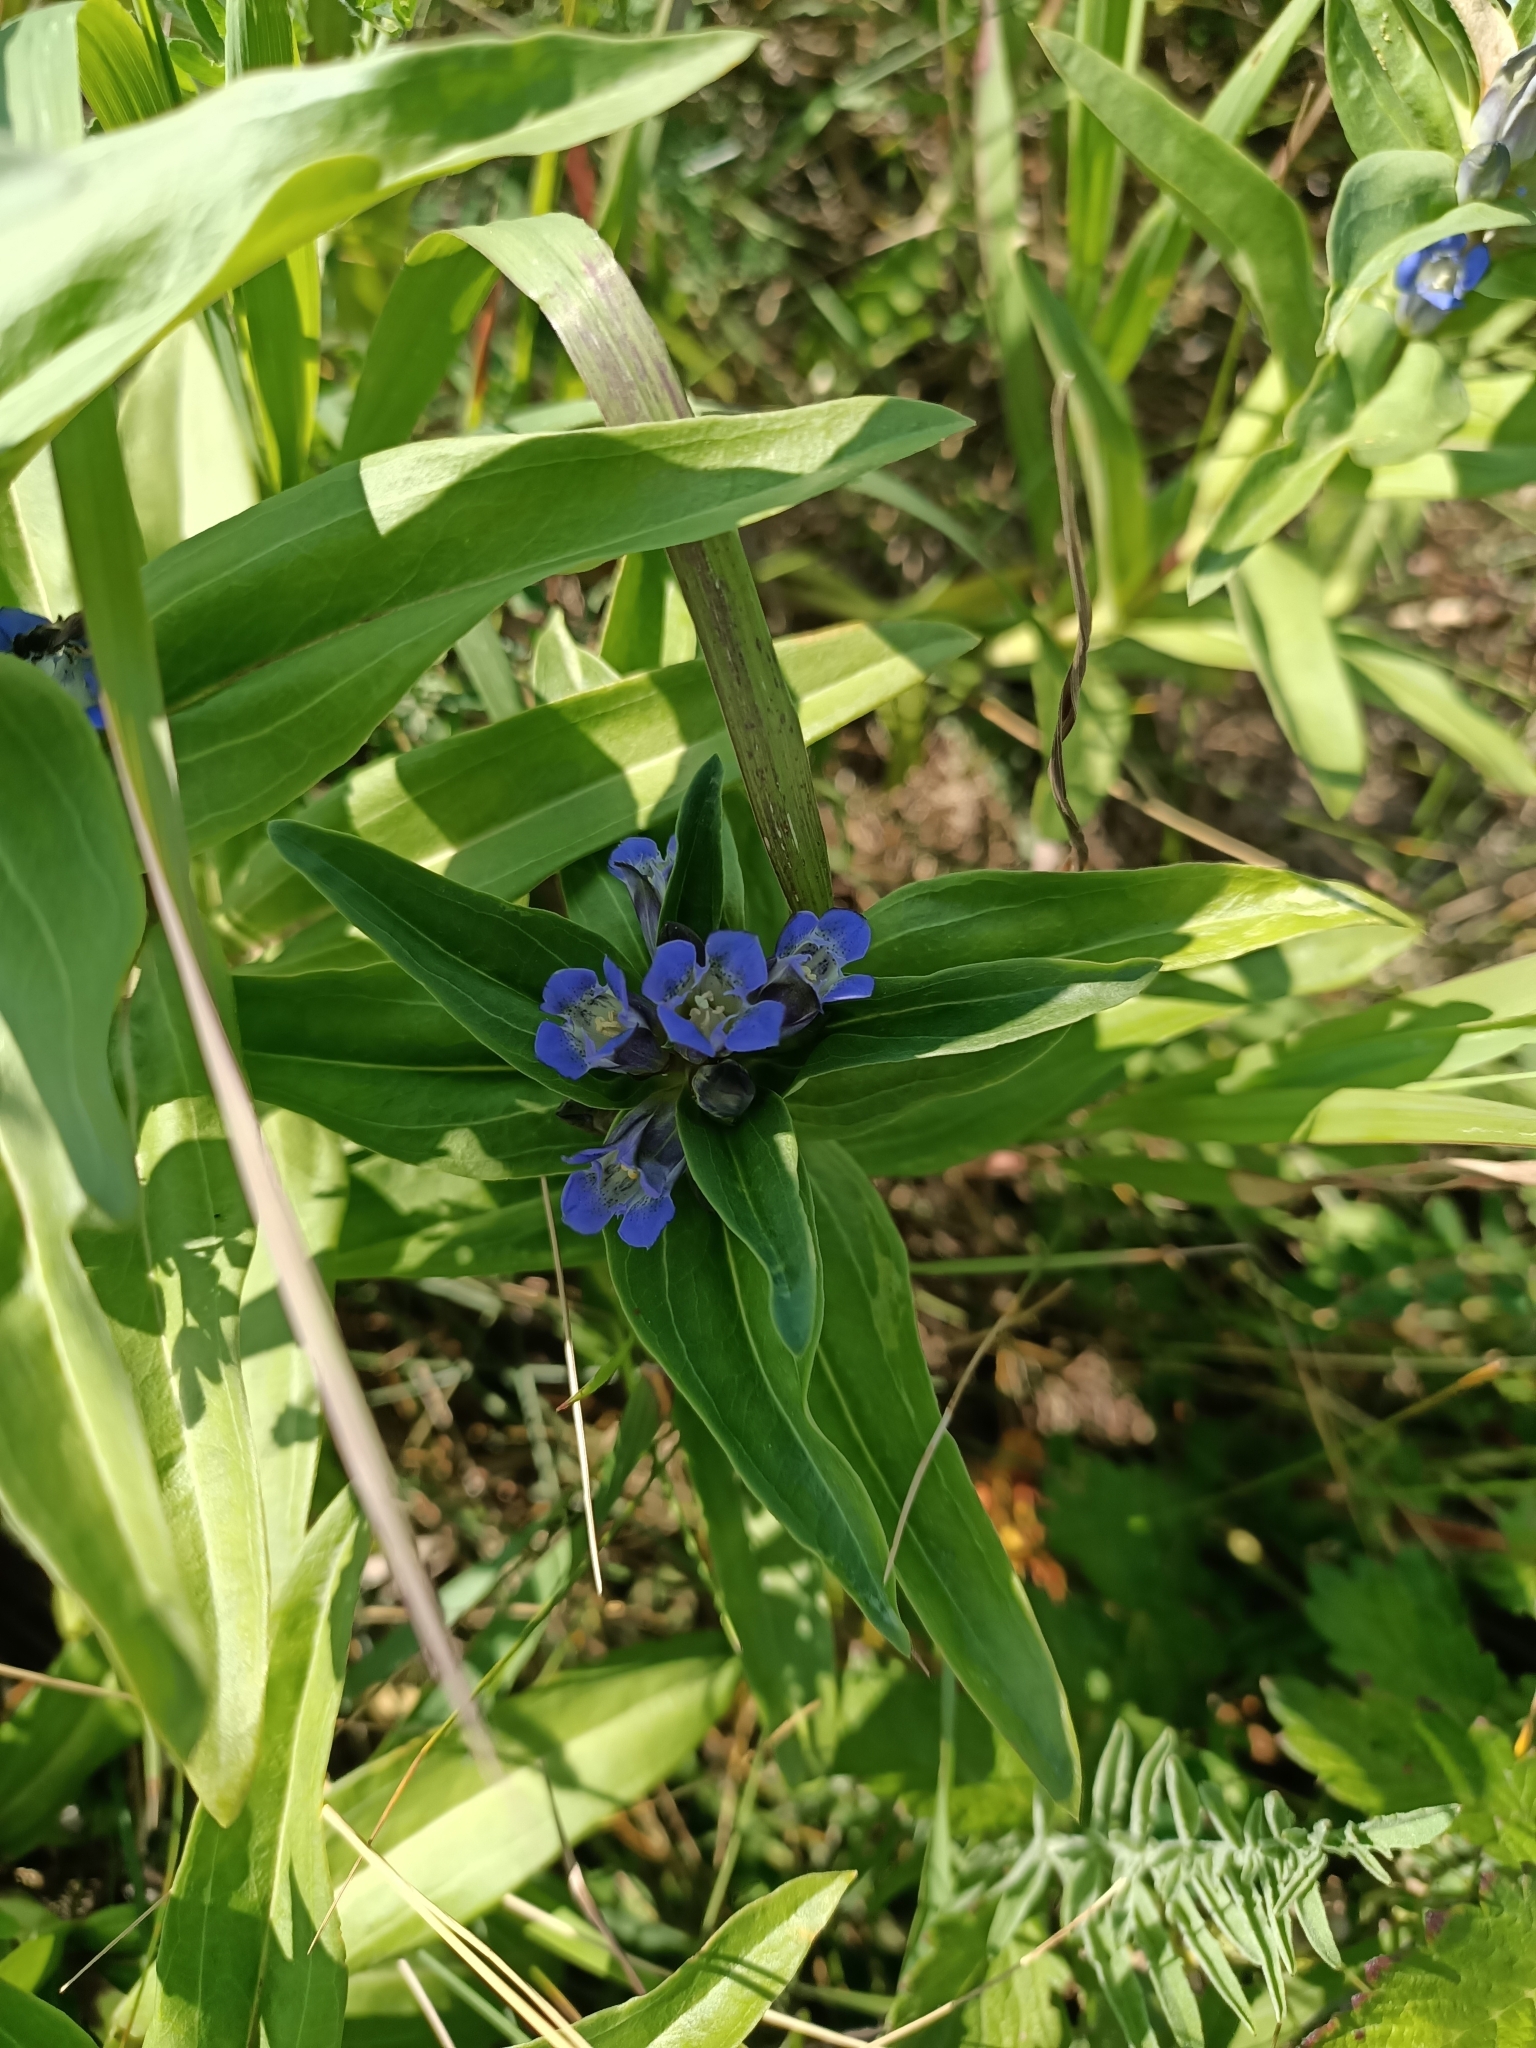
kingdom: Plantae
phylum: Tracheophyta
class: Magnoliopsida
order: Gentianales
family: Gentianaceae
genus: Gentiana
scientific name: Gentiana cruciata
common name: Cross gentian
